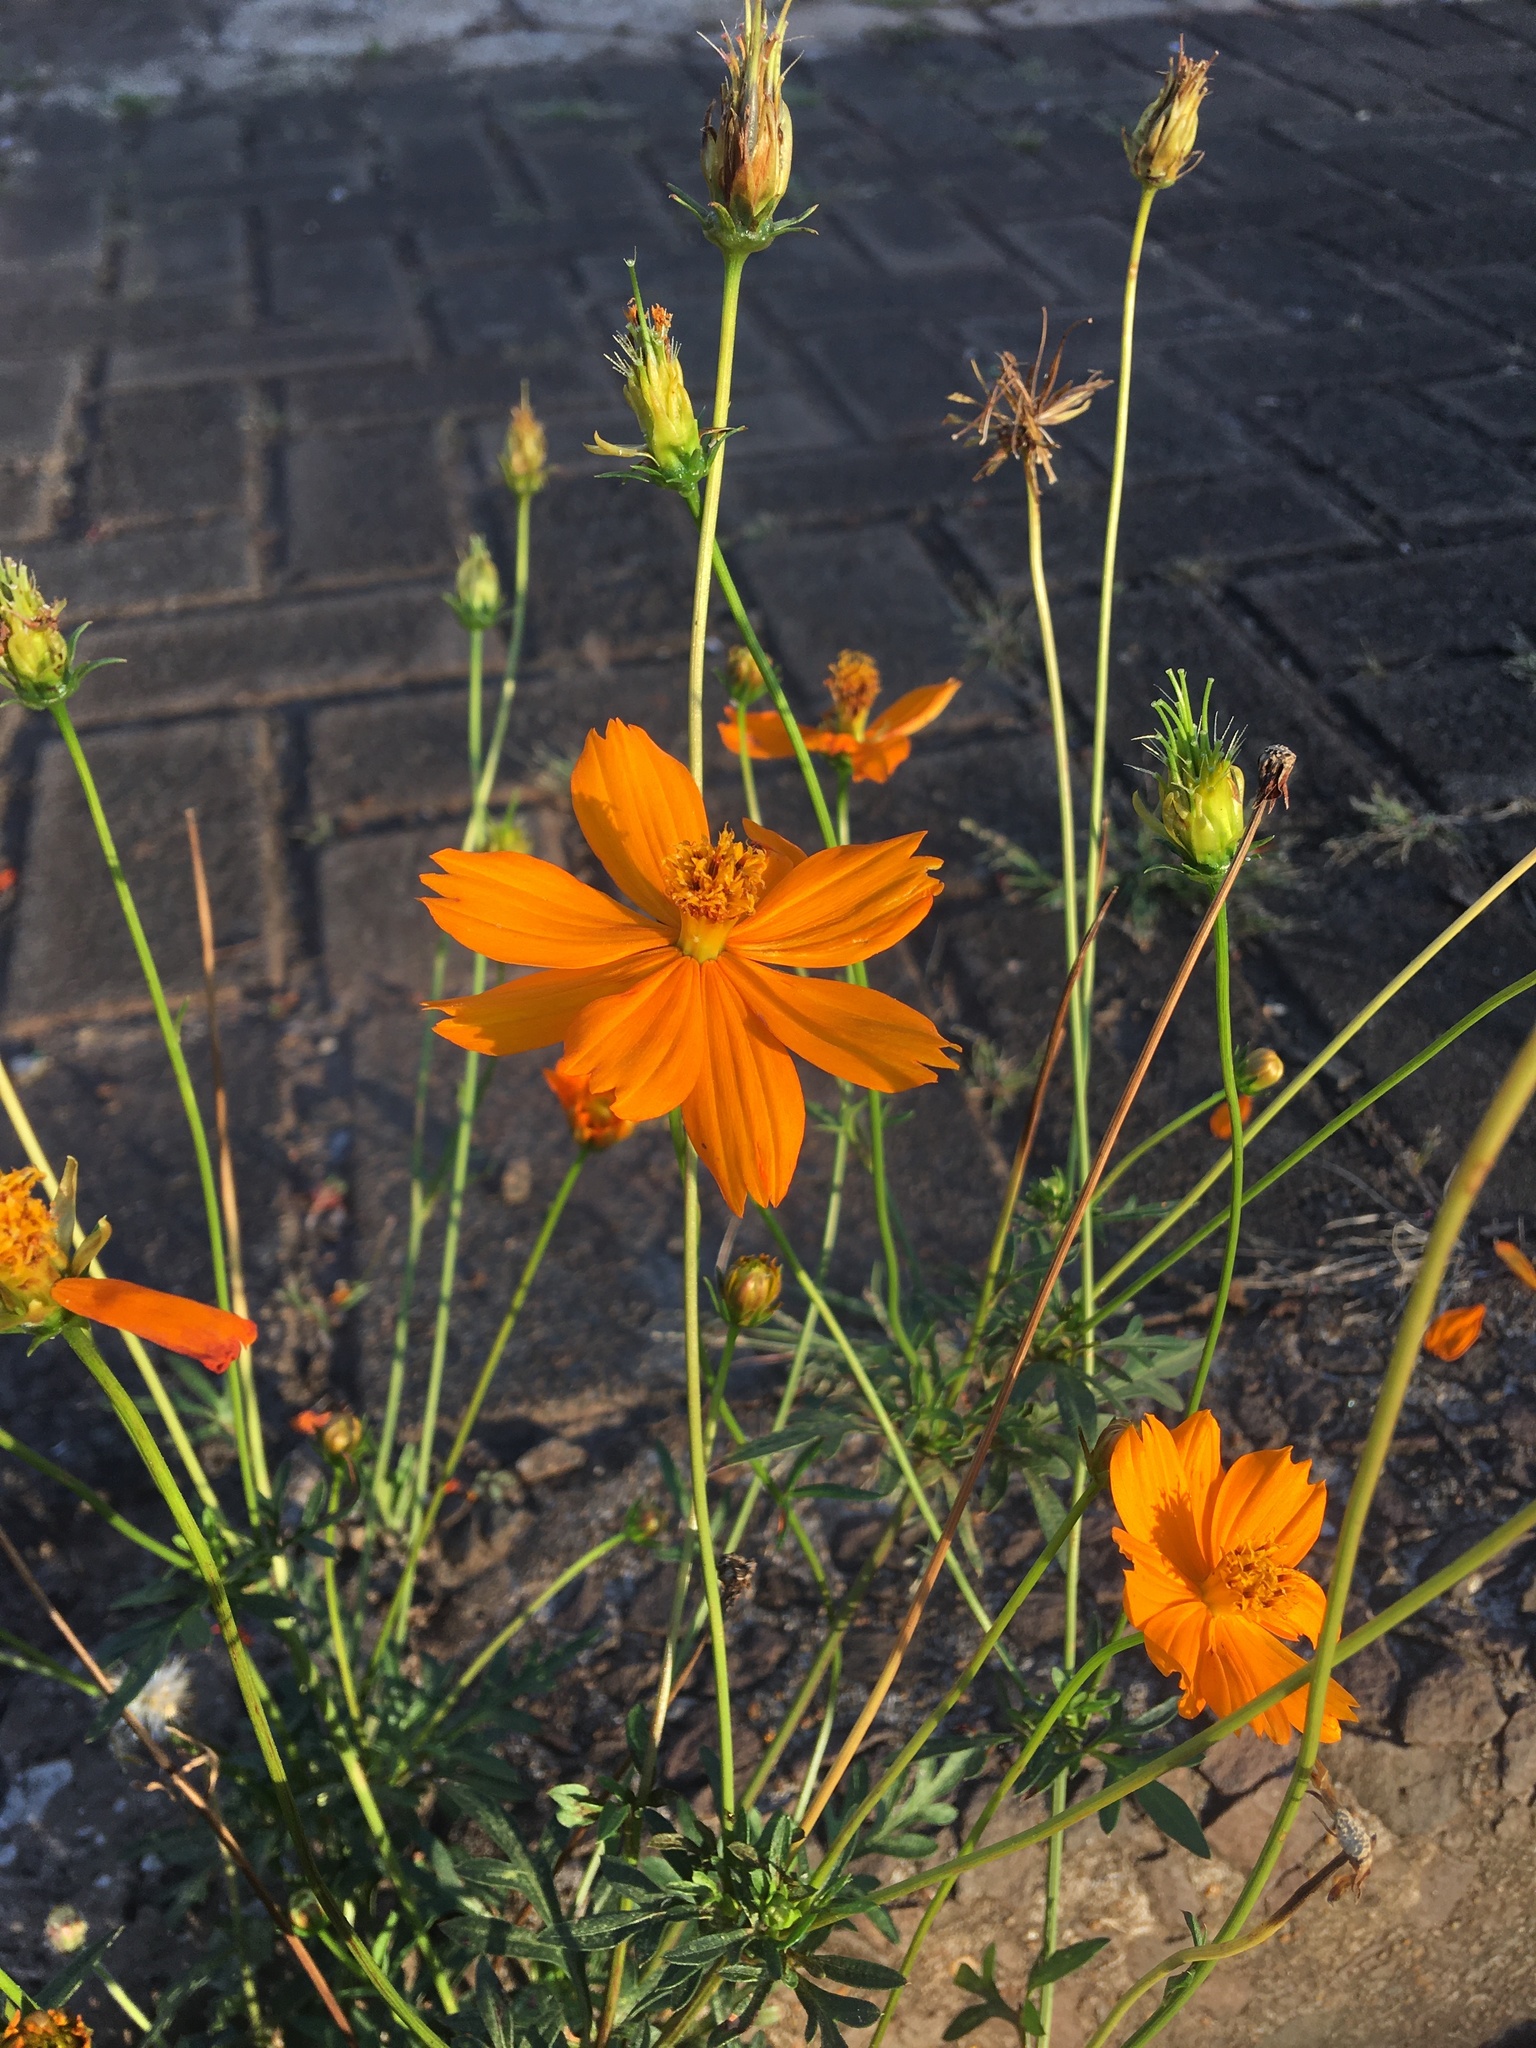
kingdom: Plantae
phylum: Tracheophyta
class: Magnoliopsida
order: Asterales
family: Asteraceae
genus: Cosmos
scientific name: Cosmos sulphureus
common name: Sulphur cosmos
